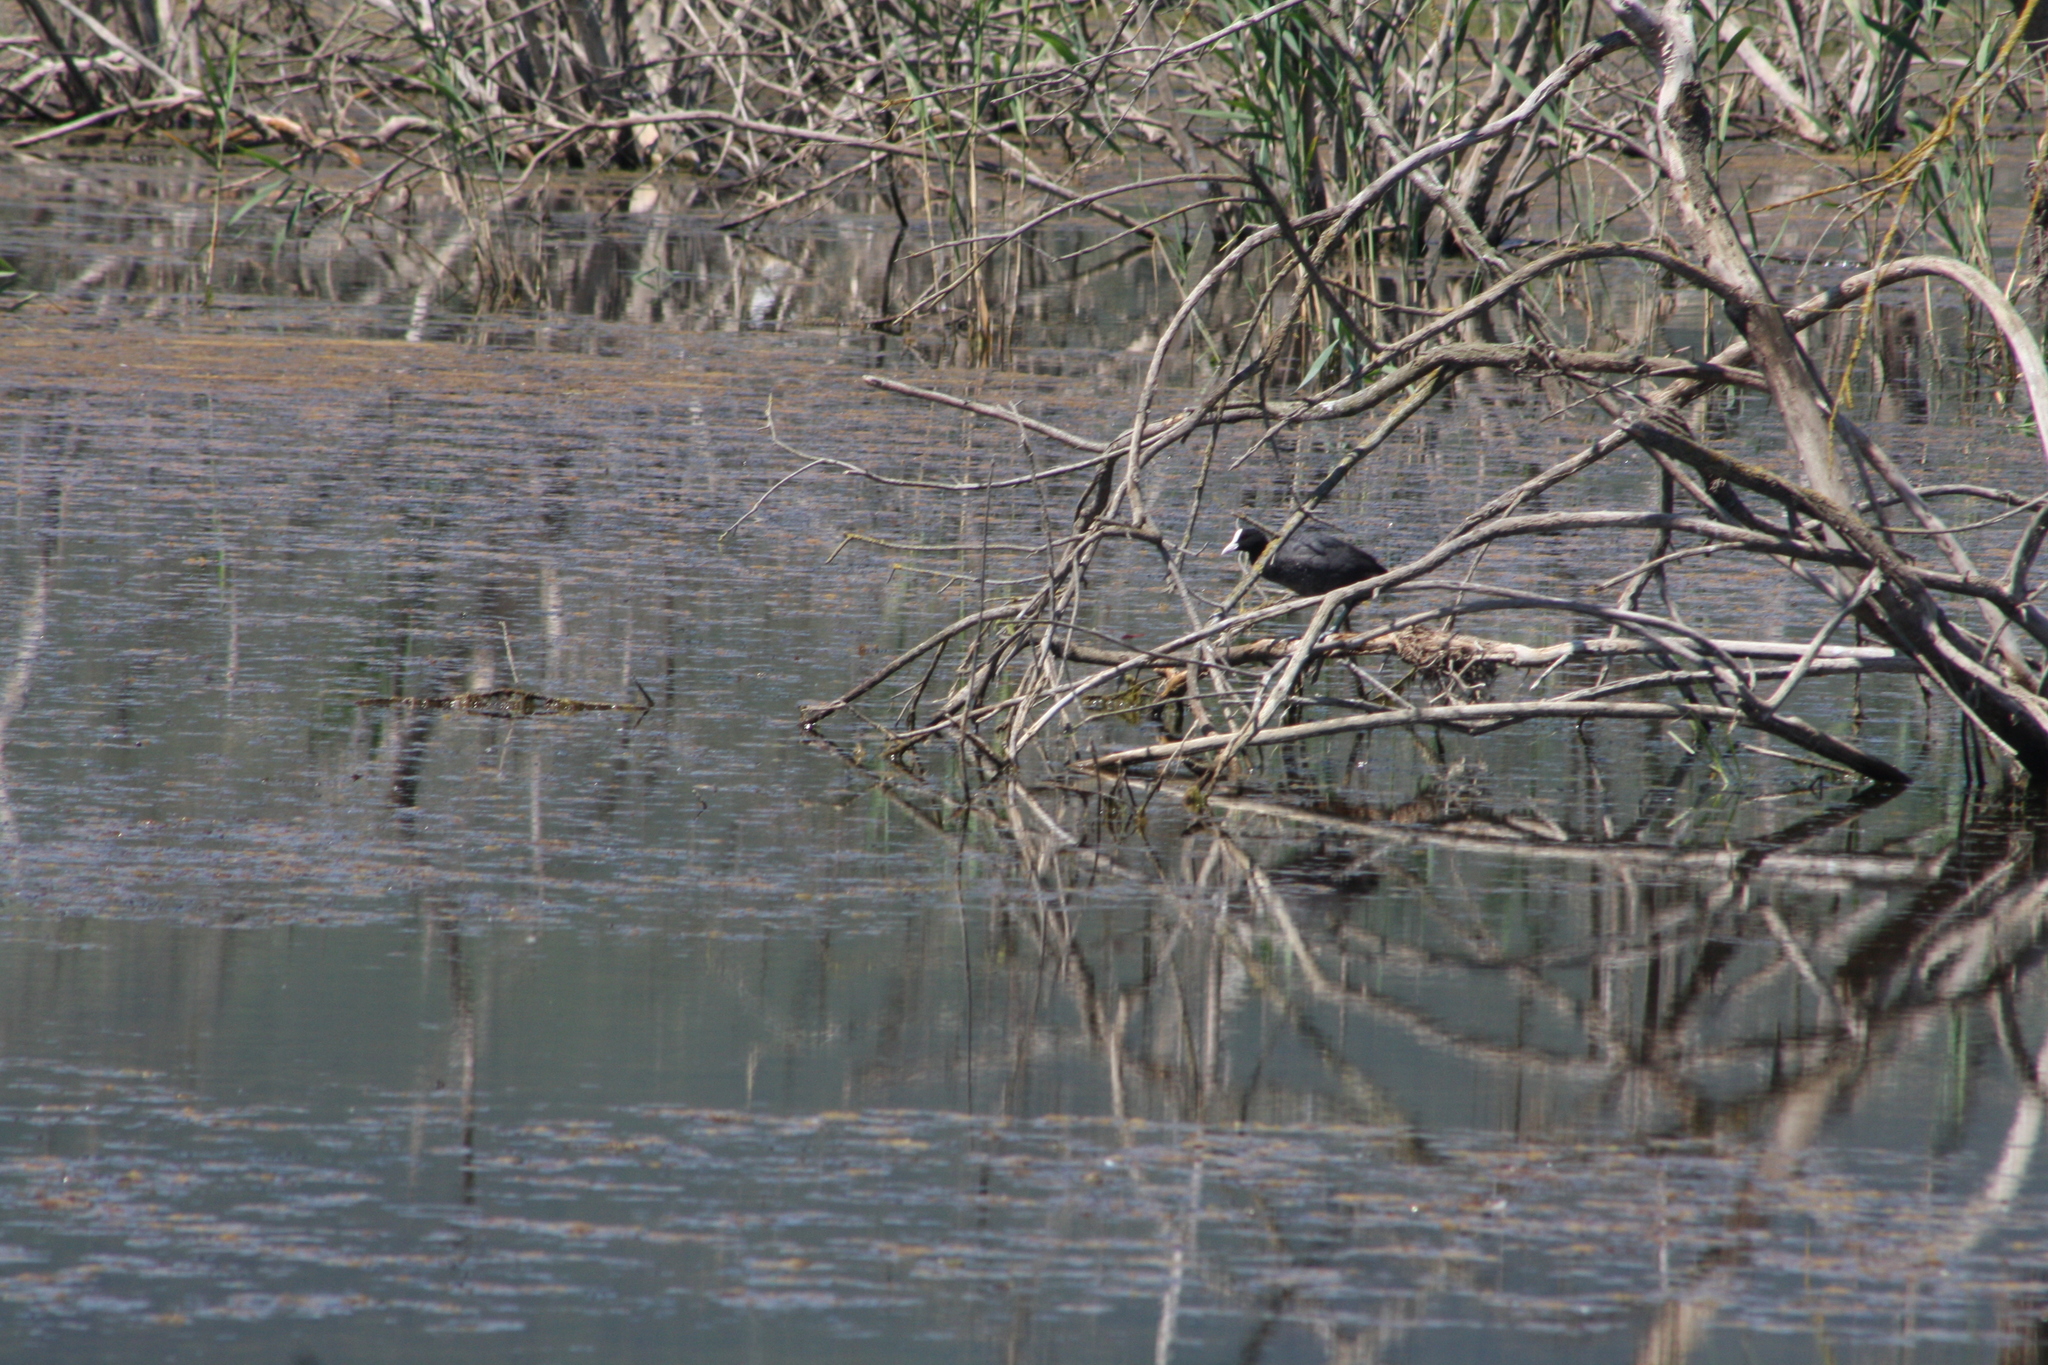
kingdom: Animalia
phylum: Chordata
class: Aves
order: Gruiformes
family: Rallidae
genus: Fulica
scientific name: Fulica atra
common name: Eurasian coot
